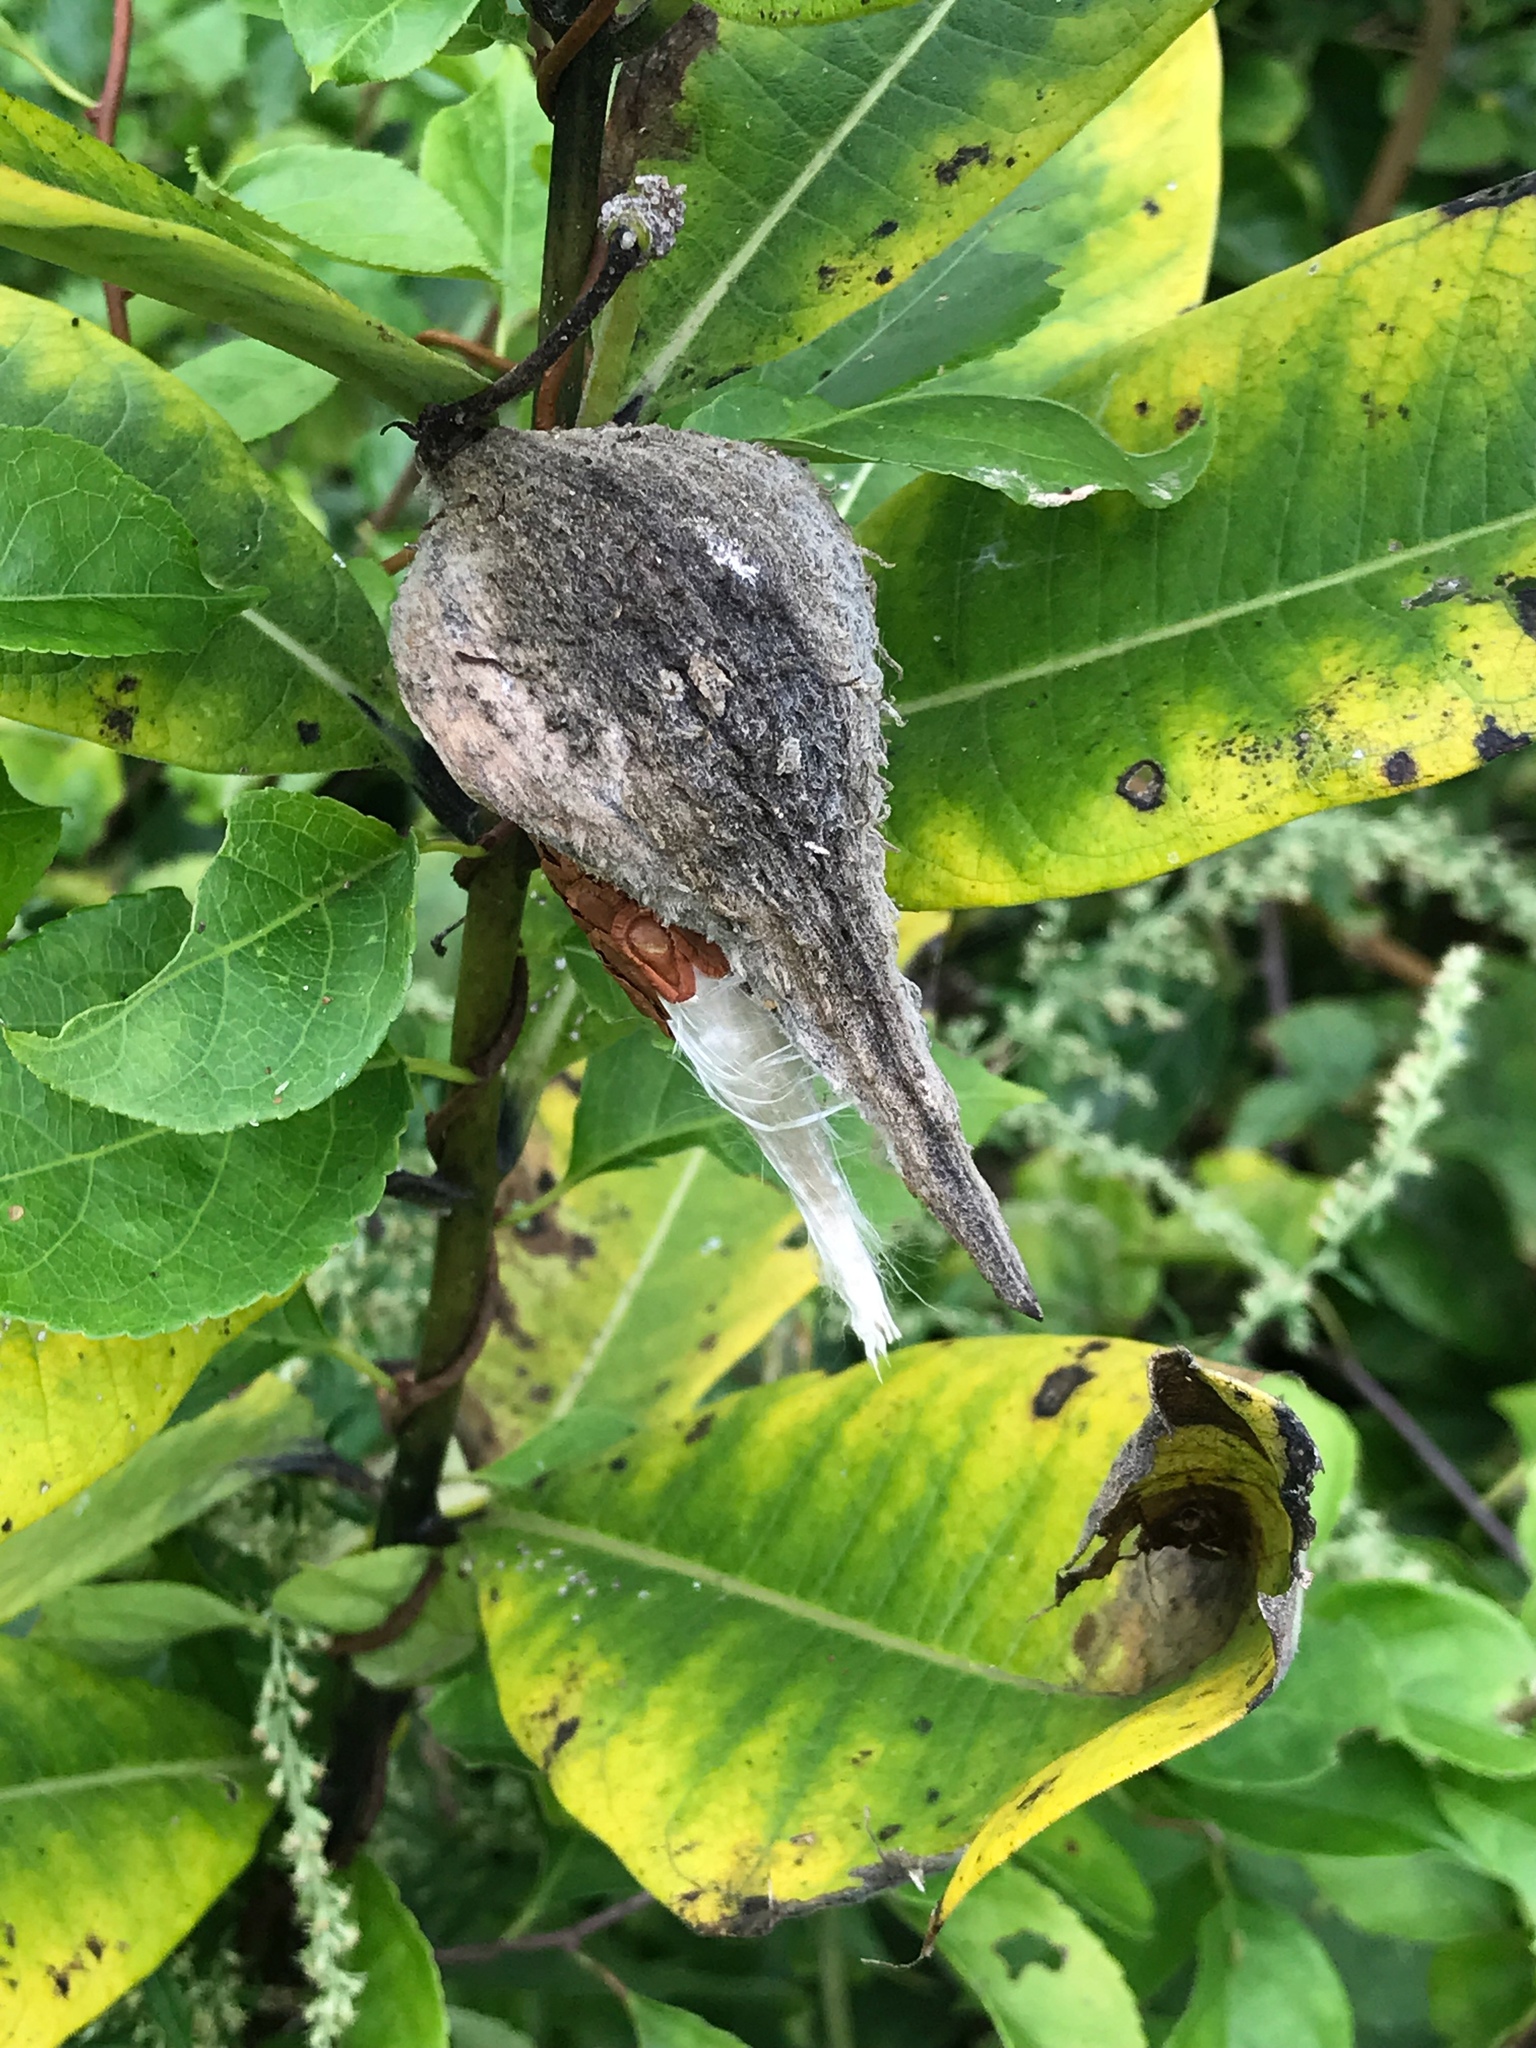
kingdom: Plantae
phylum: Tracheophyta
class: Magnoliopsida
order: Gentianales
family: Apocynaceae
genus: Asclepias
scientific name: Asclepias syriaca
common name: Common milkweed
